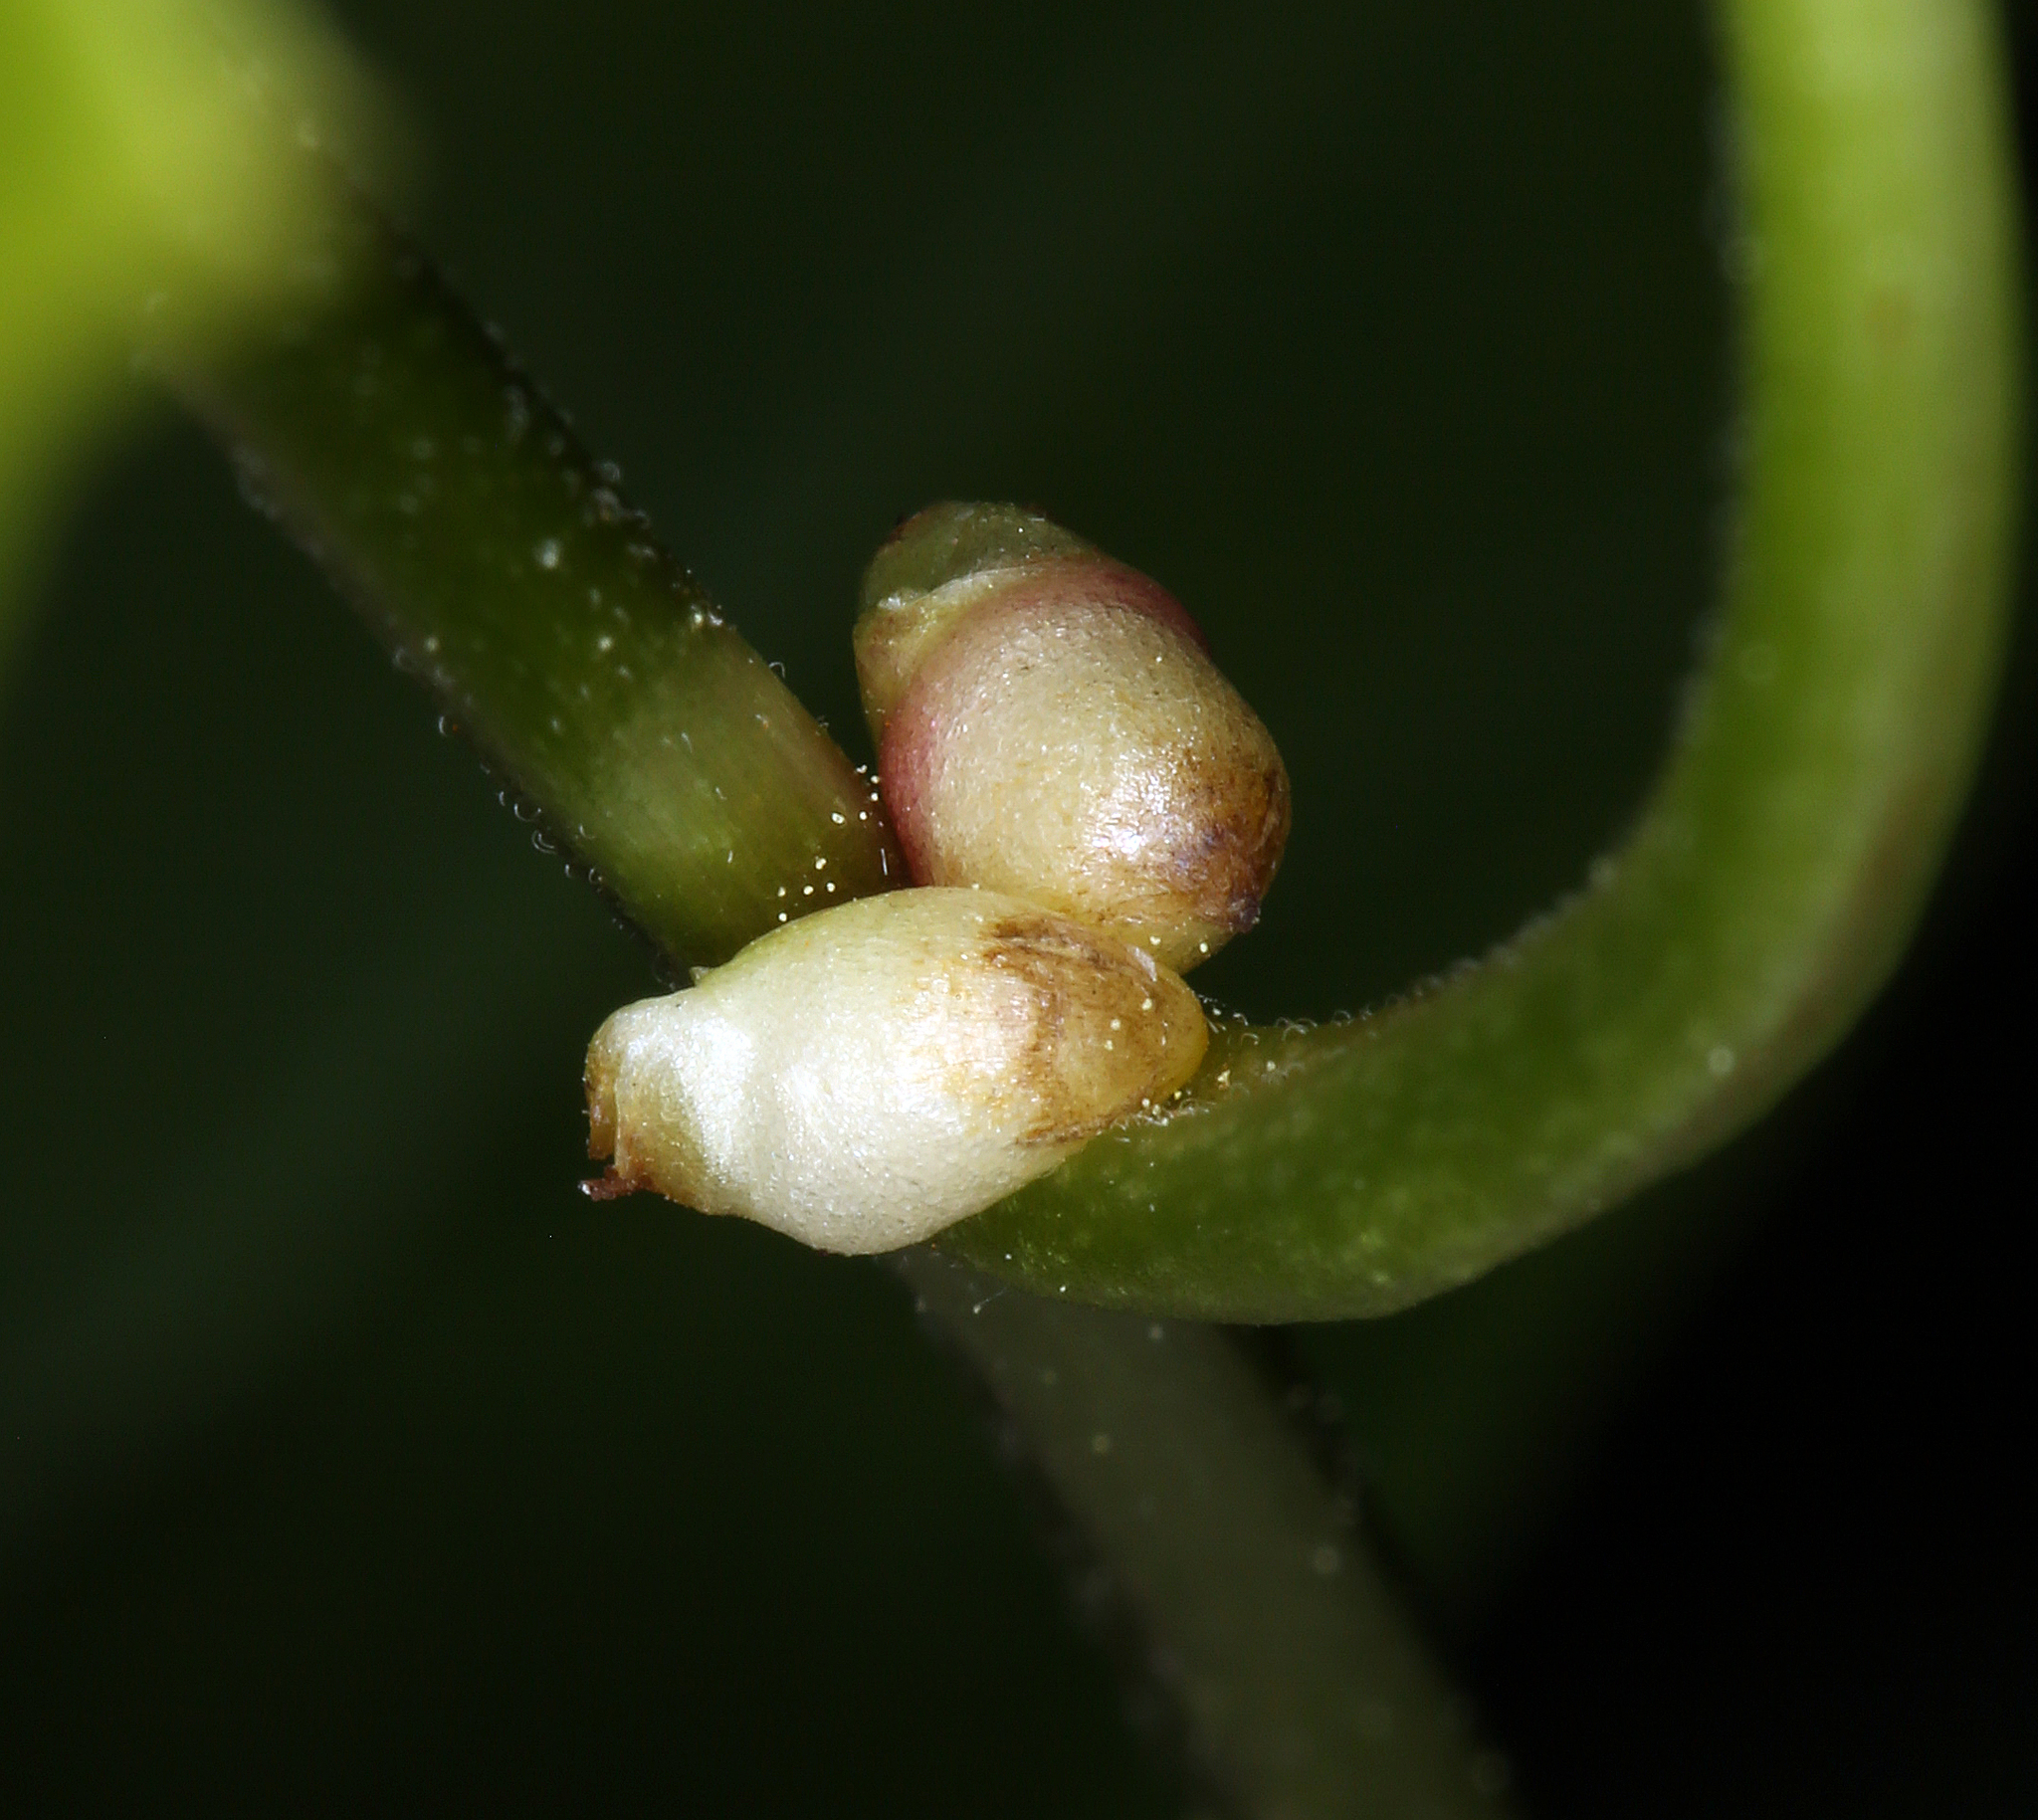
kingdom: Plantae
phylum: Tracheophyta
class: Magnoliopsida
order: Ranunculales
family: Ranunculaceae
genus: Aconitum
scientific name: Aconitum columbianum
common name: Columbia aconite
